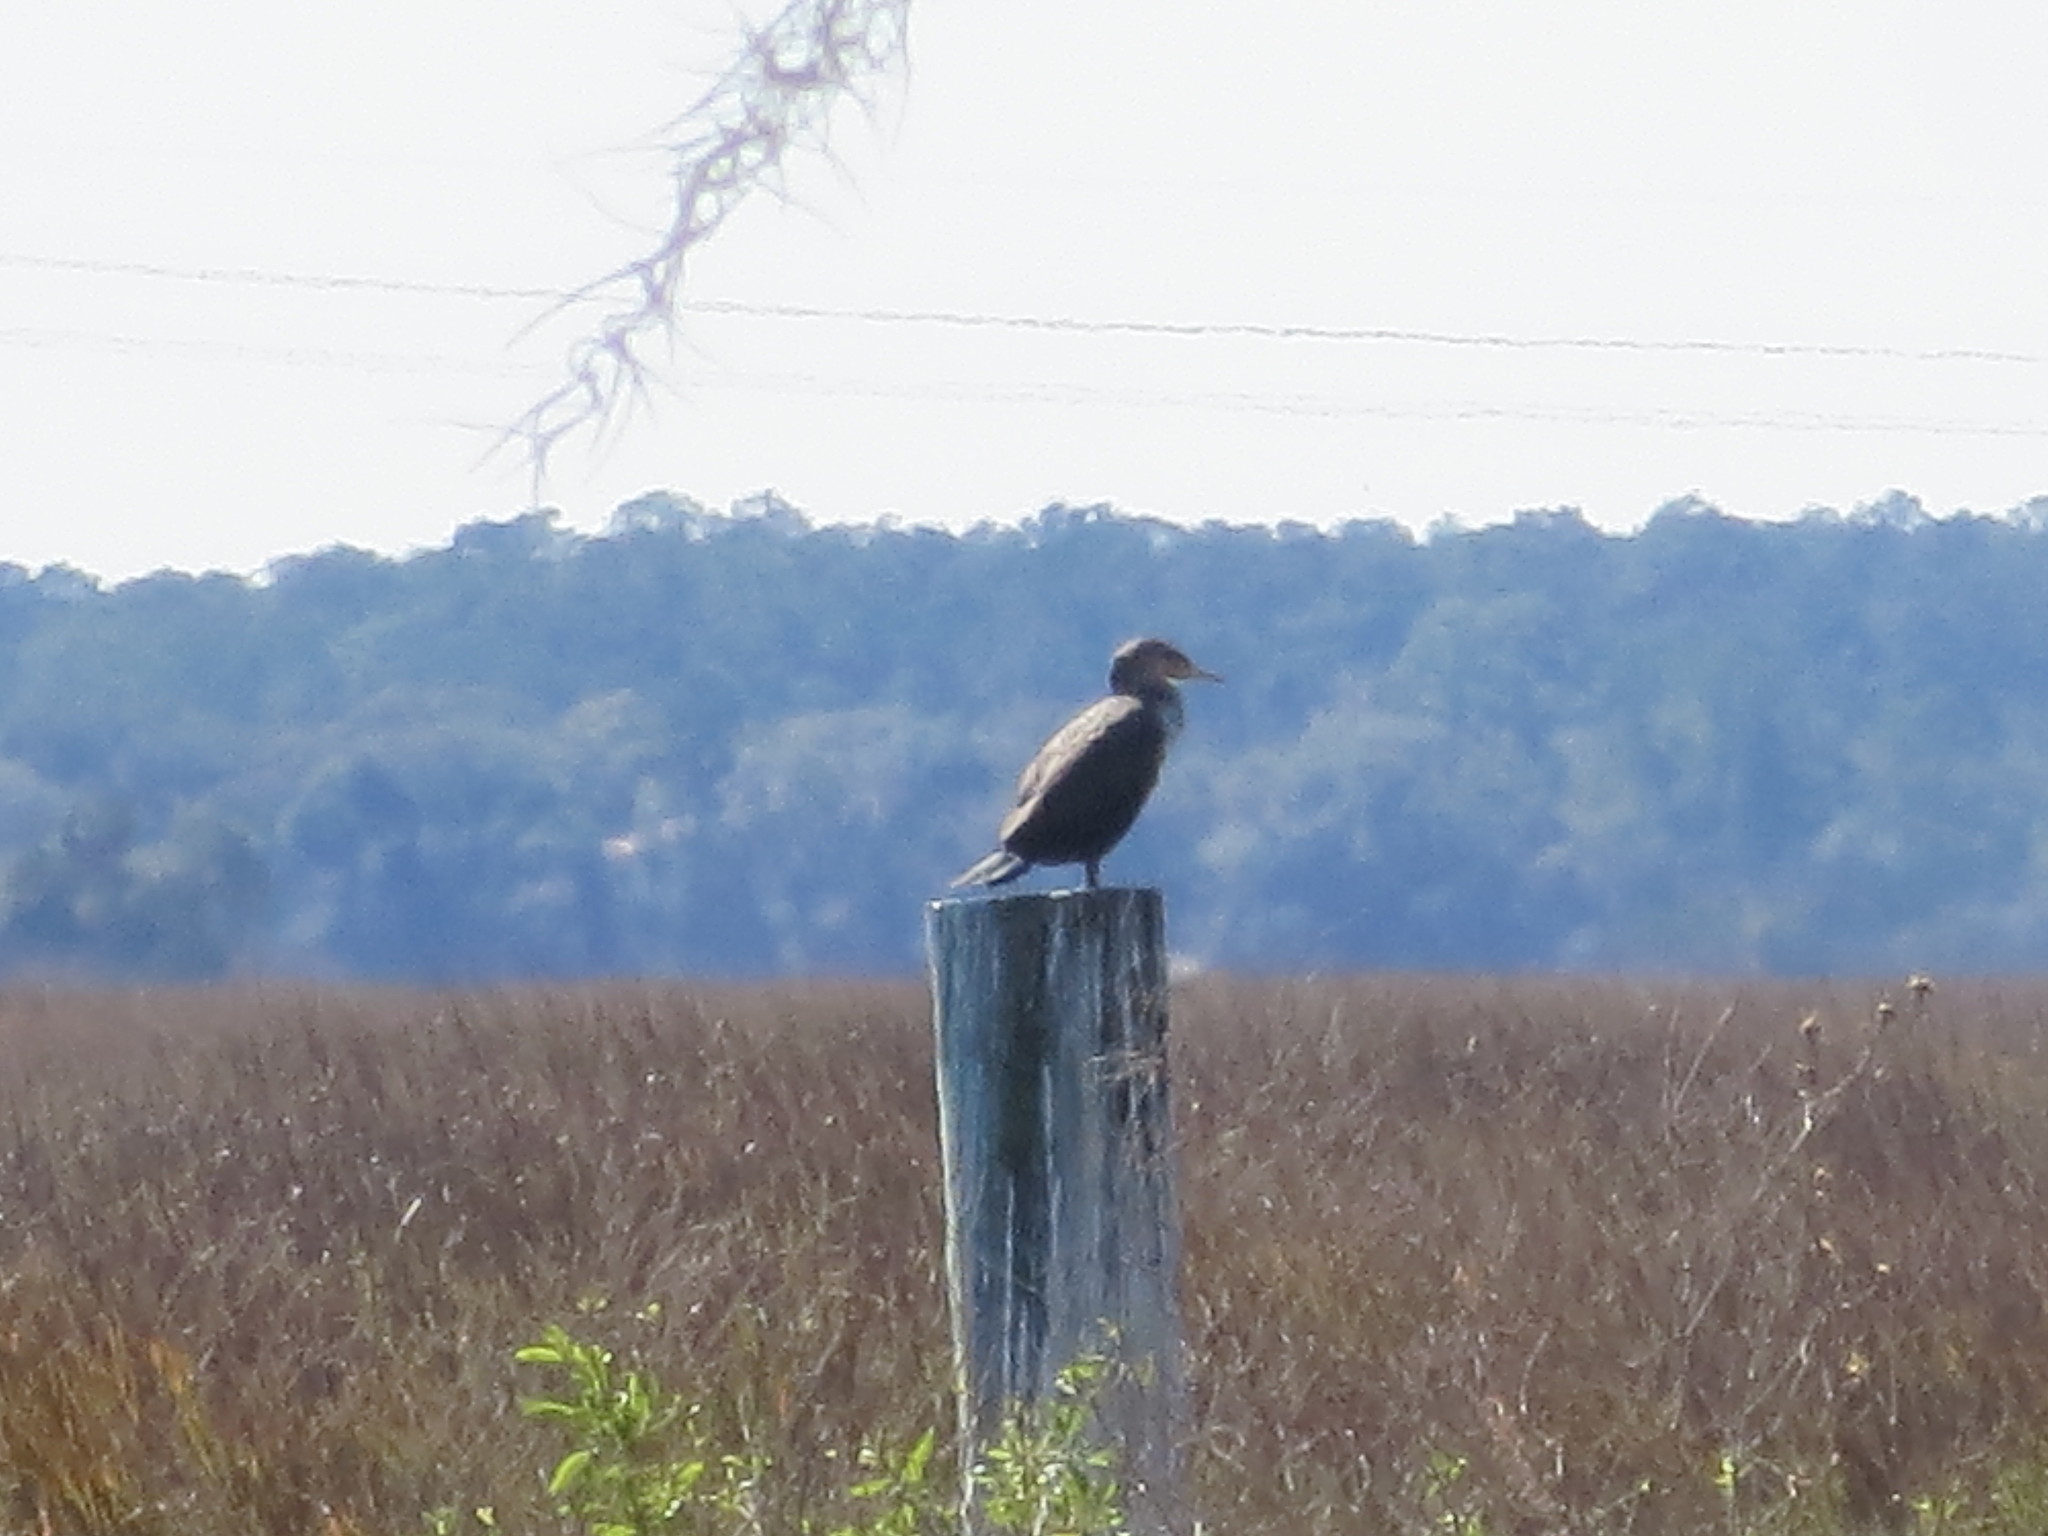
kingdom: Animalia
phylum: Chordata
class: Aves
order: Suliformes
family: Phalacrocoracidae
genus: Phalacrocorax
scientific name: Phalacrocorax auritus
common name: Double-crested cormorant
